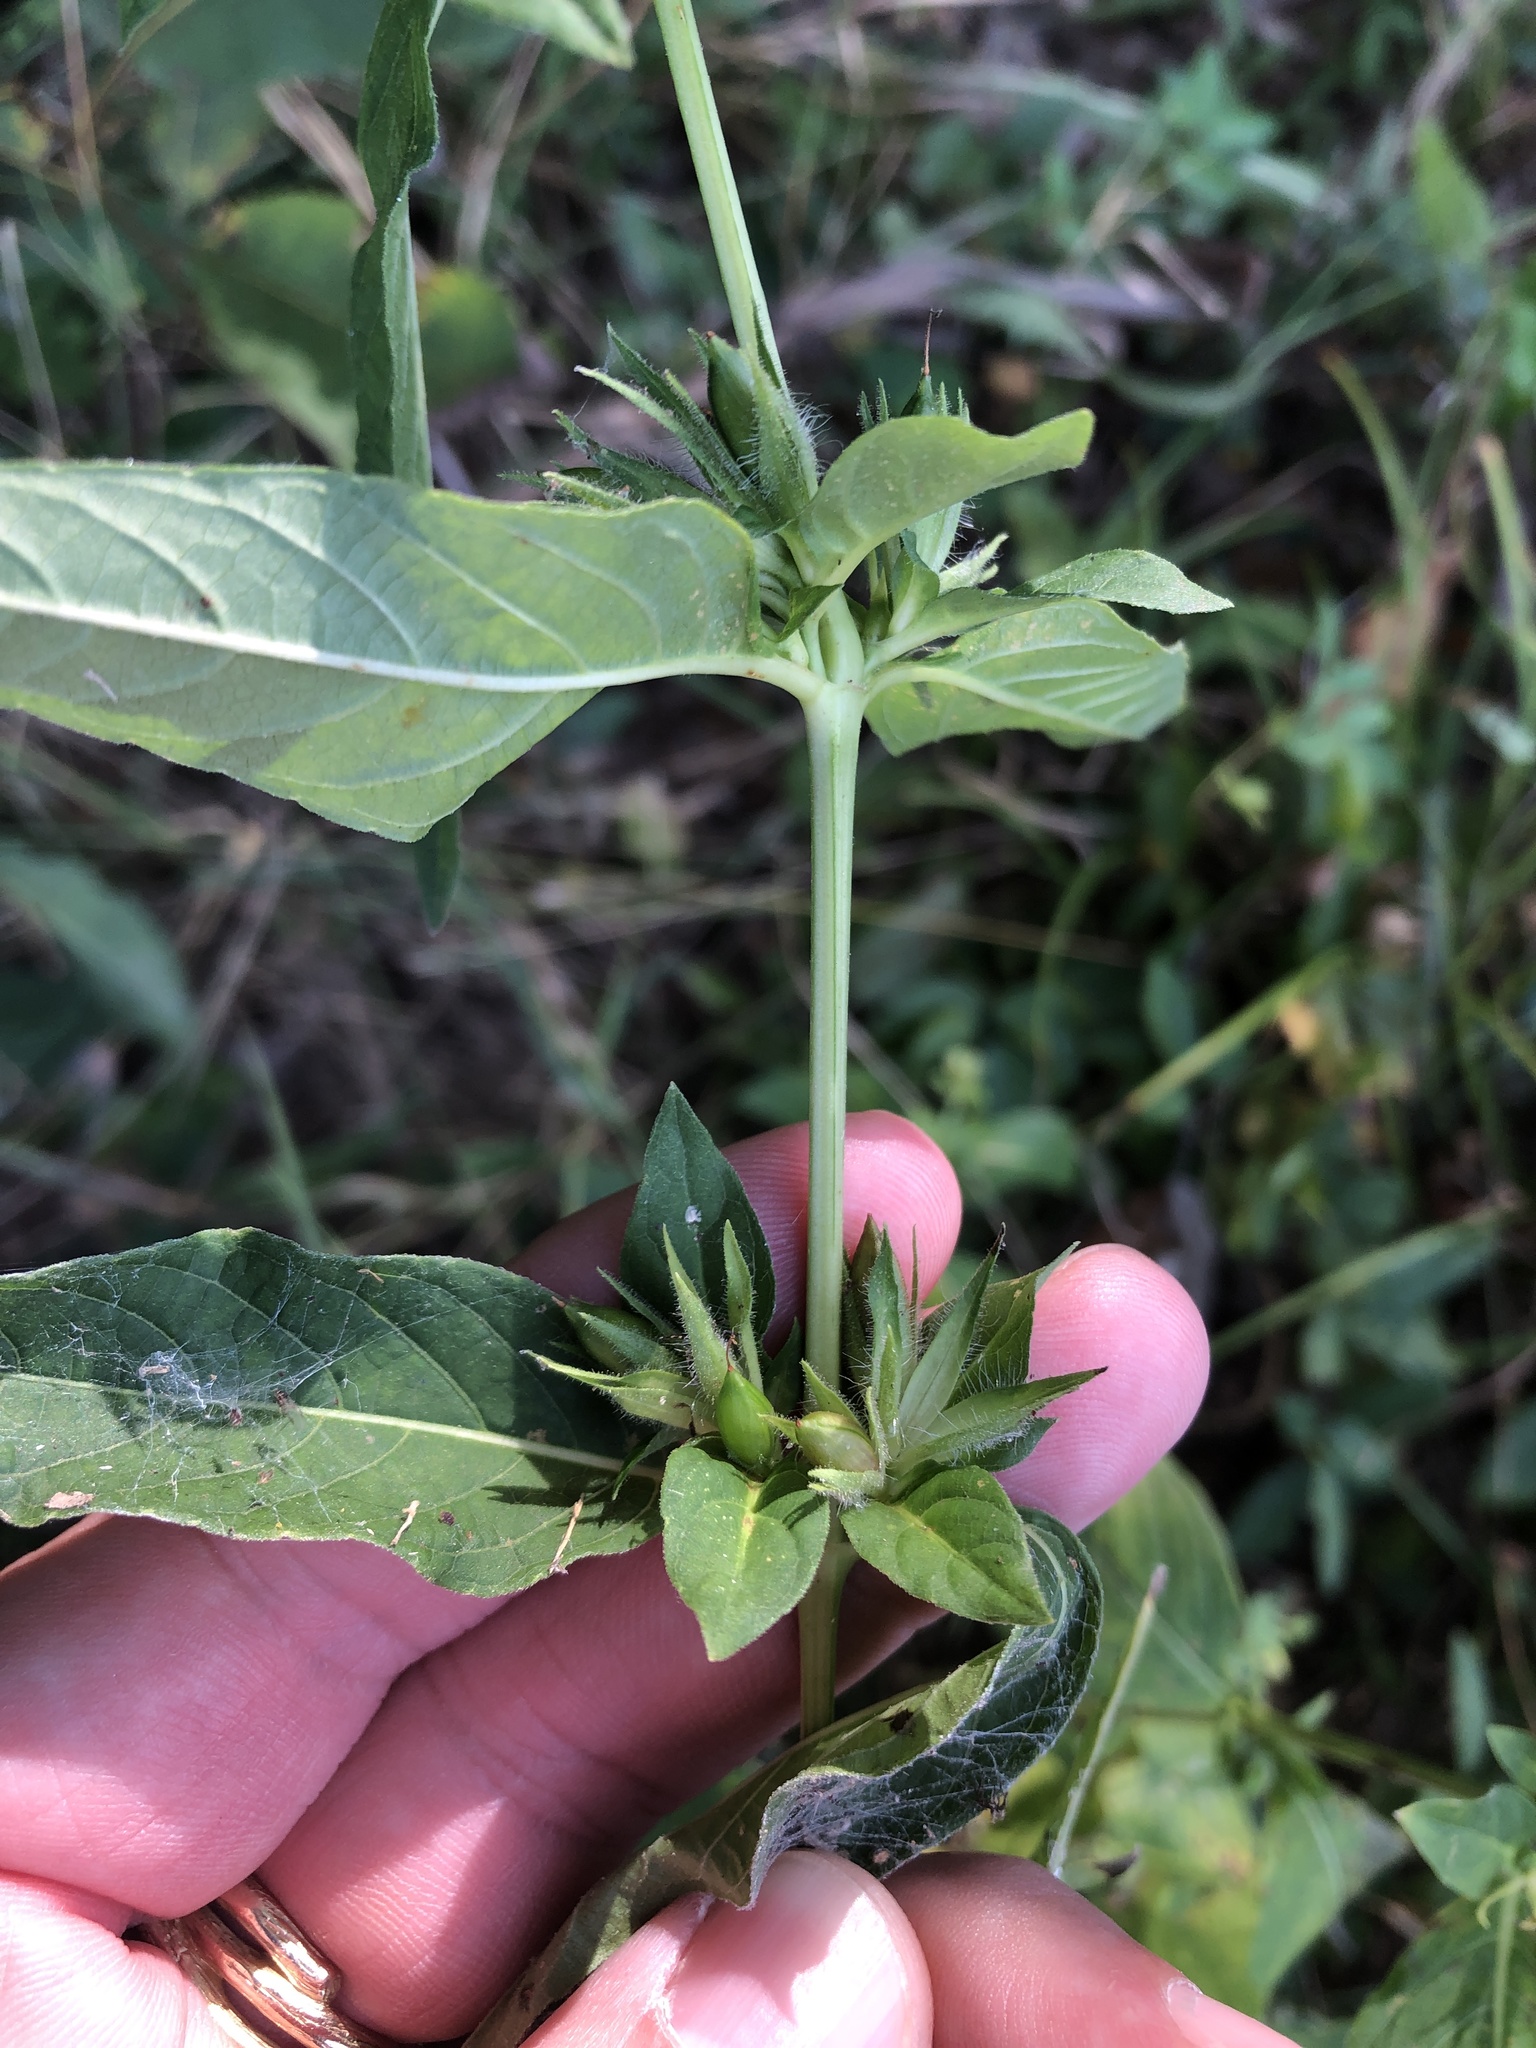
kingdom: Plantae
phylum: Tracheophyta
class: Magnoliopsida
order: Lamiales
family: Acanthaceae
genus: Ruellia
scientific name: Ruellia strepens
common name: Limestone wild petunia
